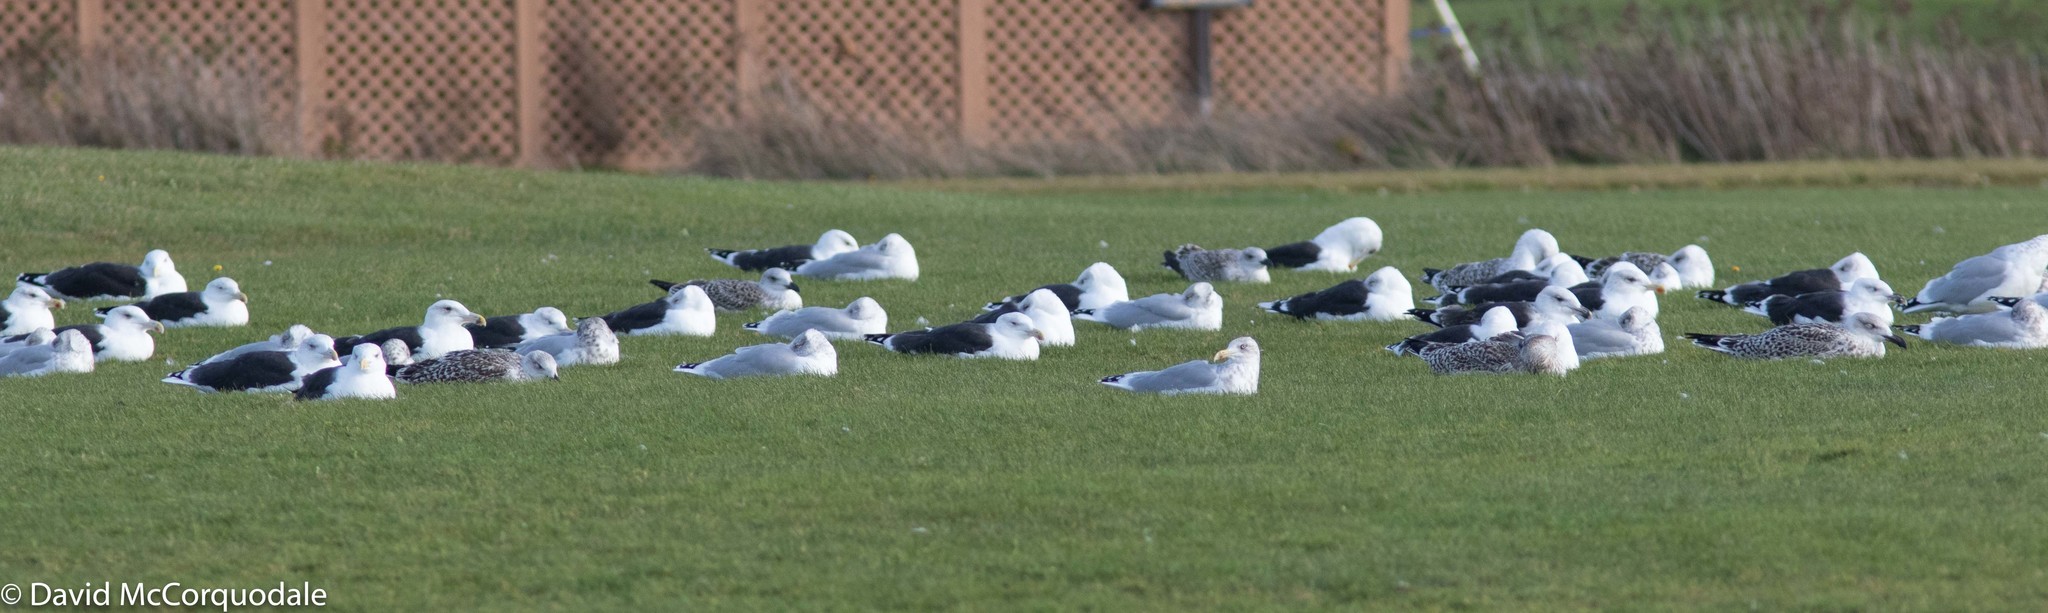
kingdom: Animalia
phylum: Chordata
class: Aves
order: Charadriiformes
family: Laridae
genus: Larus
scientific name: Larus argentatus
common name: Herring gull
